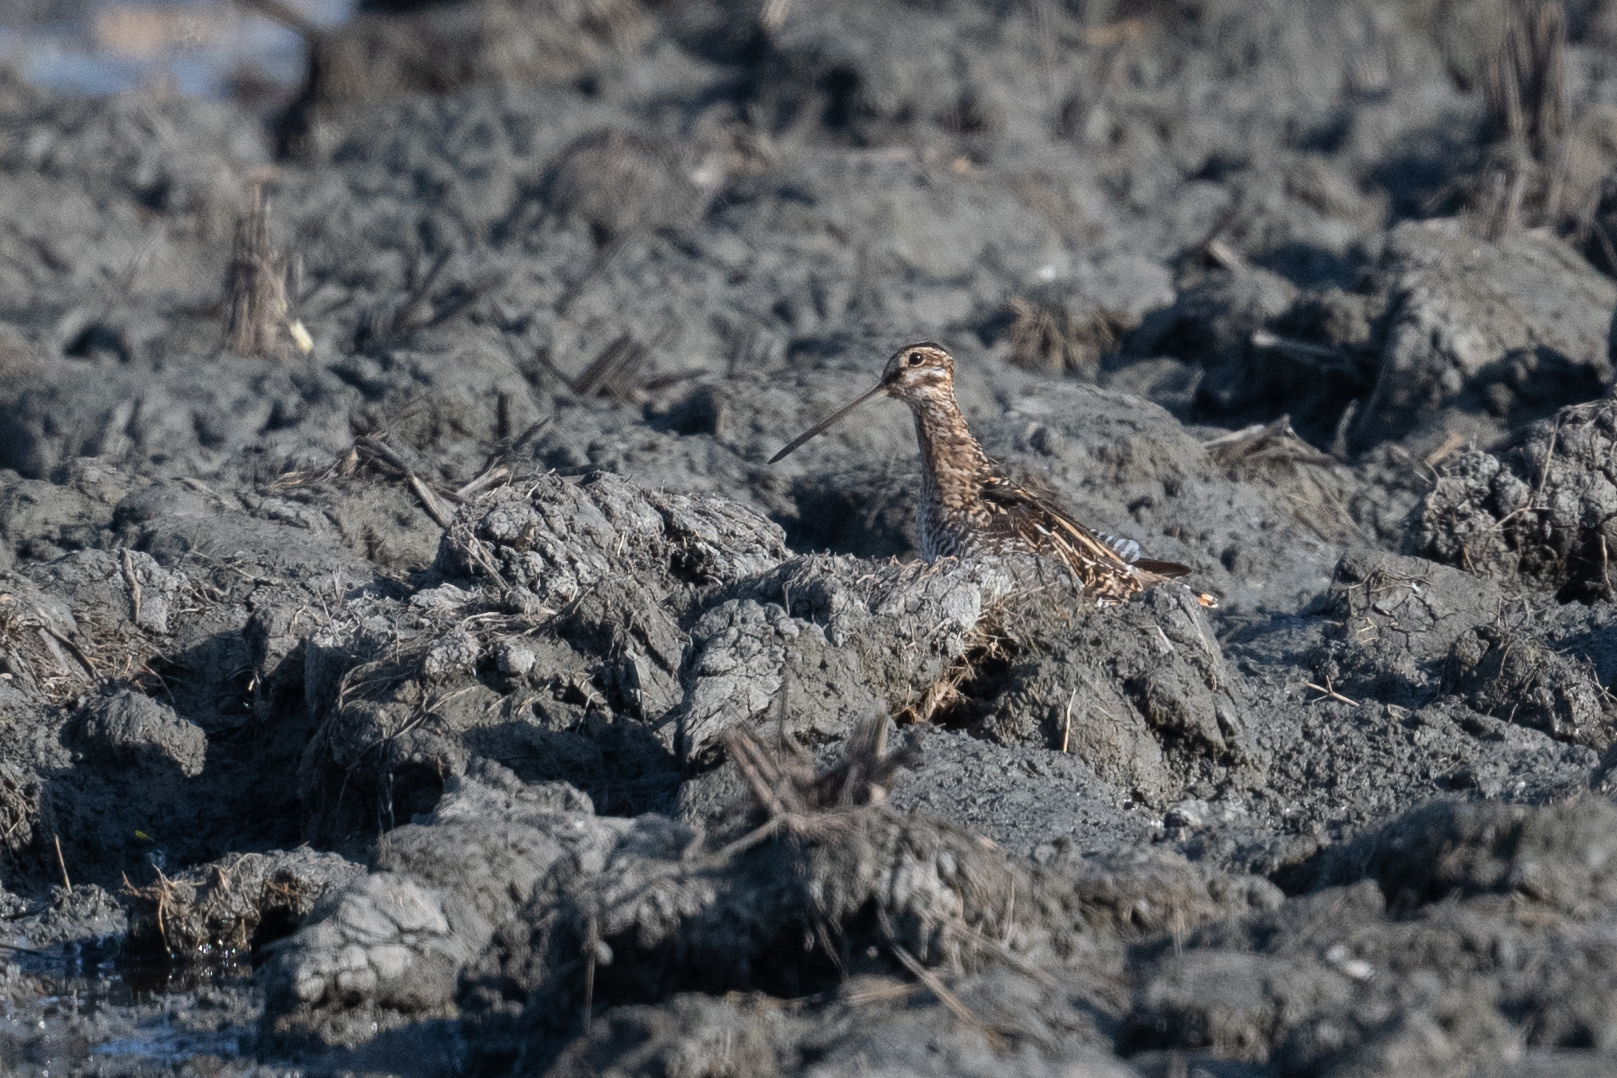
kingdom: Animalia
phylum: Chordata
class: Aves
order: Charadriiformes
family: Scolopacidae
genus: Gallinago
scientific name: Gallinago delicata
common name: Wilson's snipe
